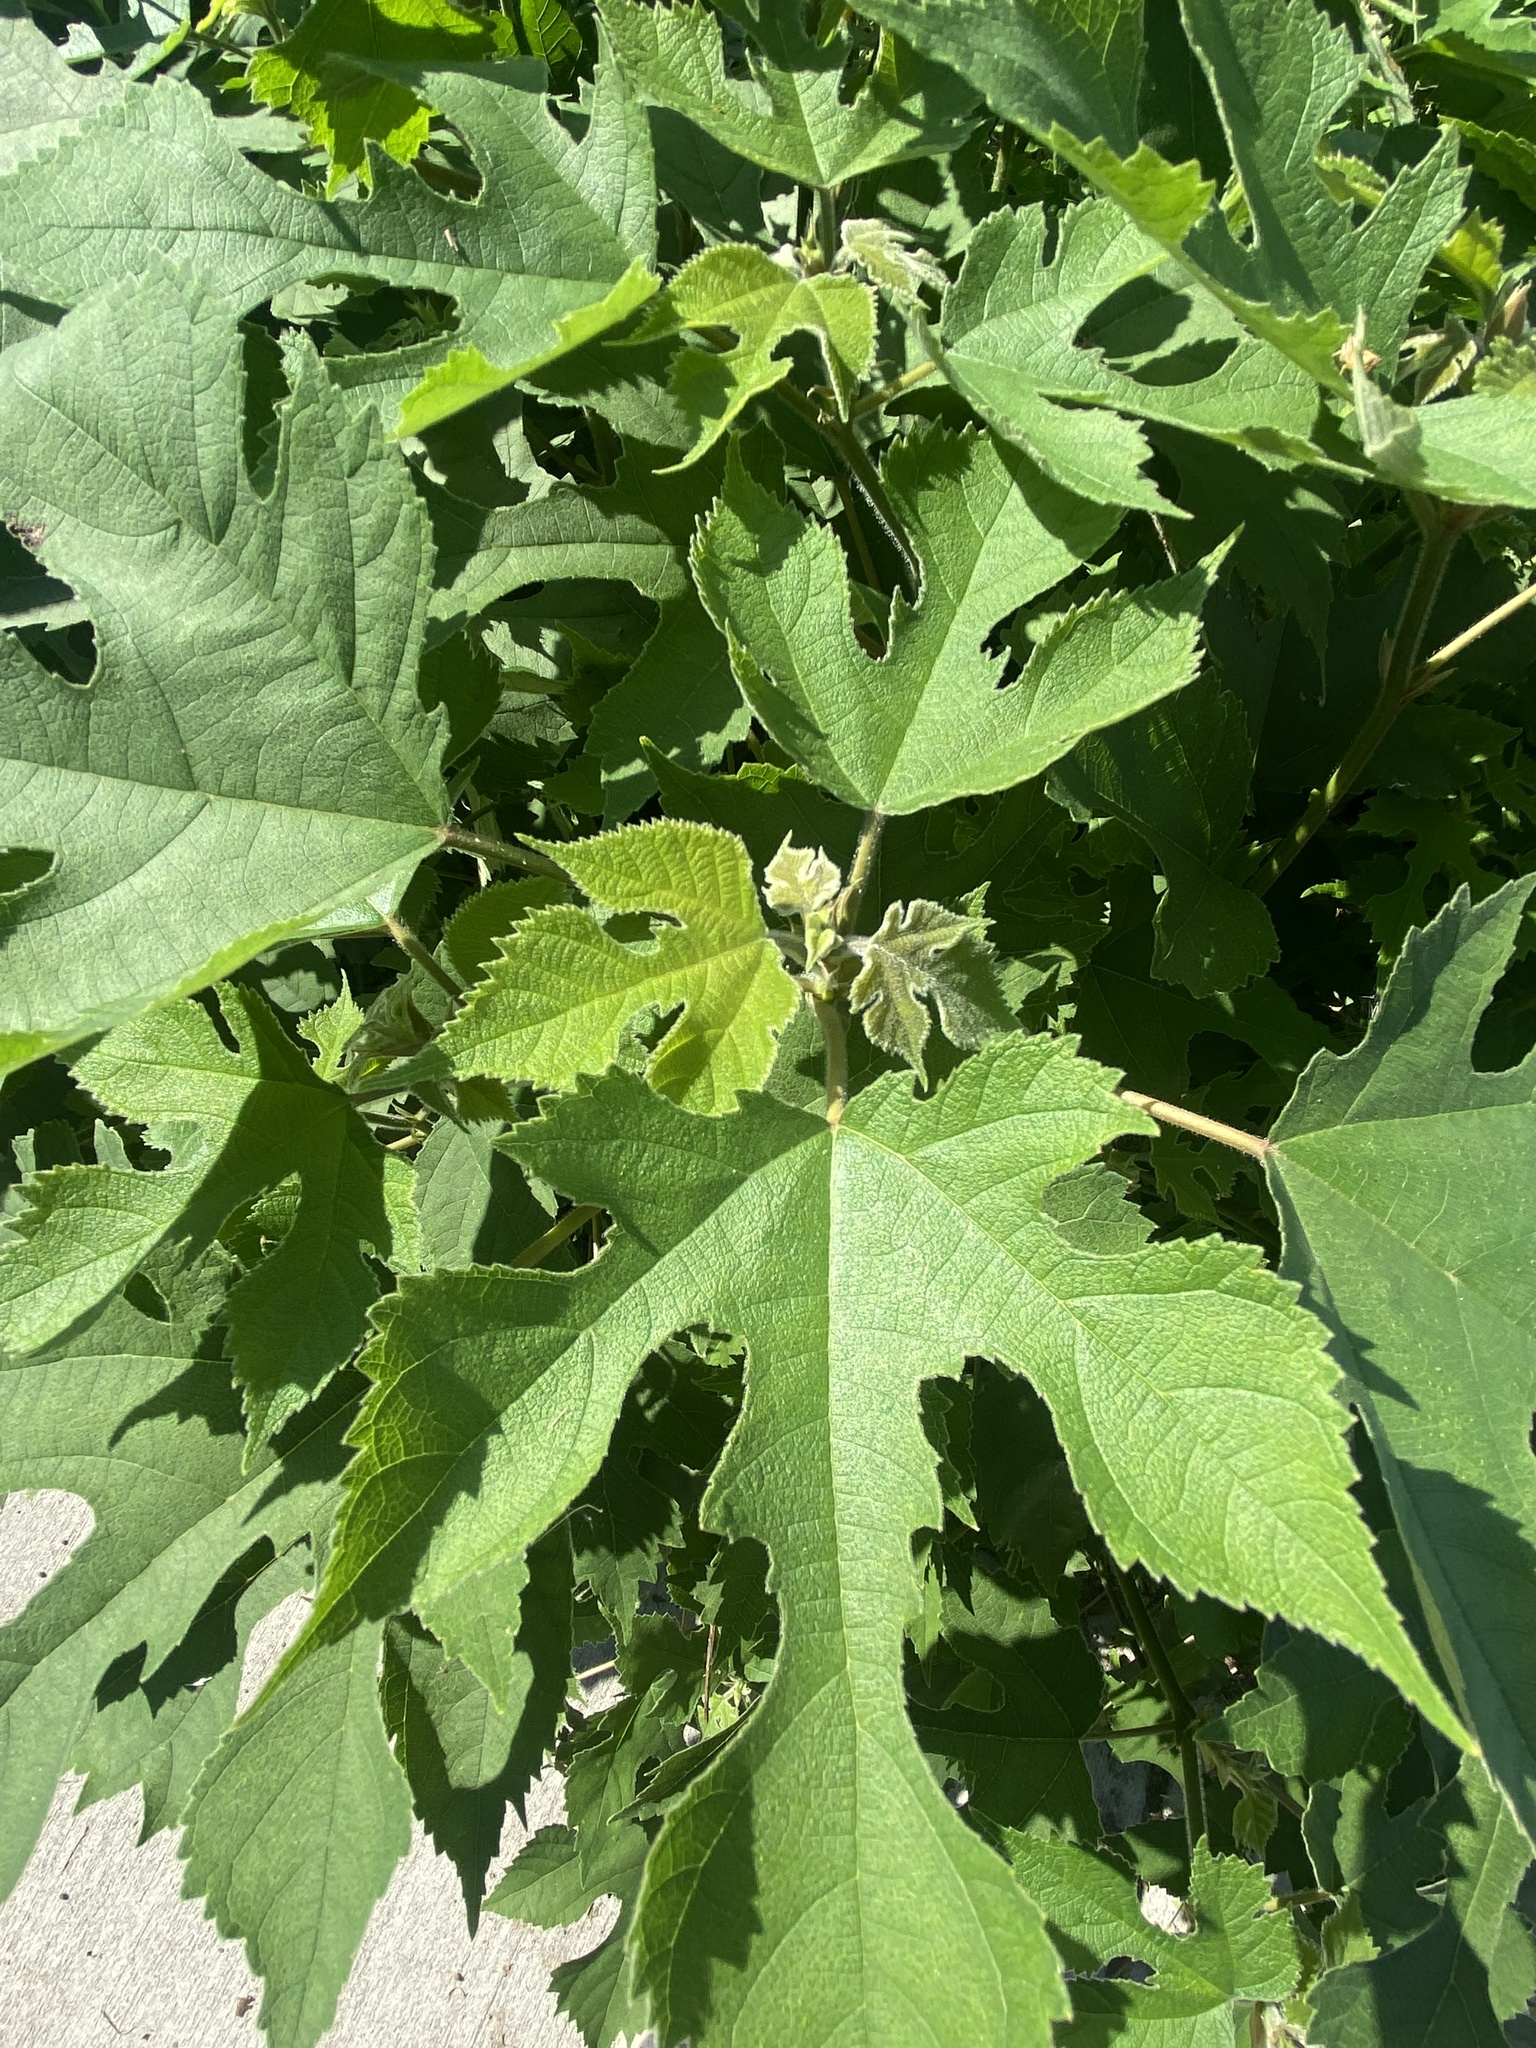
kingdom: Plantae
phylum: Tracheophyta
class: Magnoliopsida
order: Rosales
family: Moraceae
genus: Broussonetia
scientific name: Broussonetia papyrifera
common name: Paper mulberry
